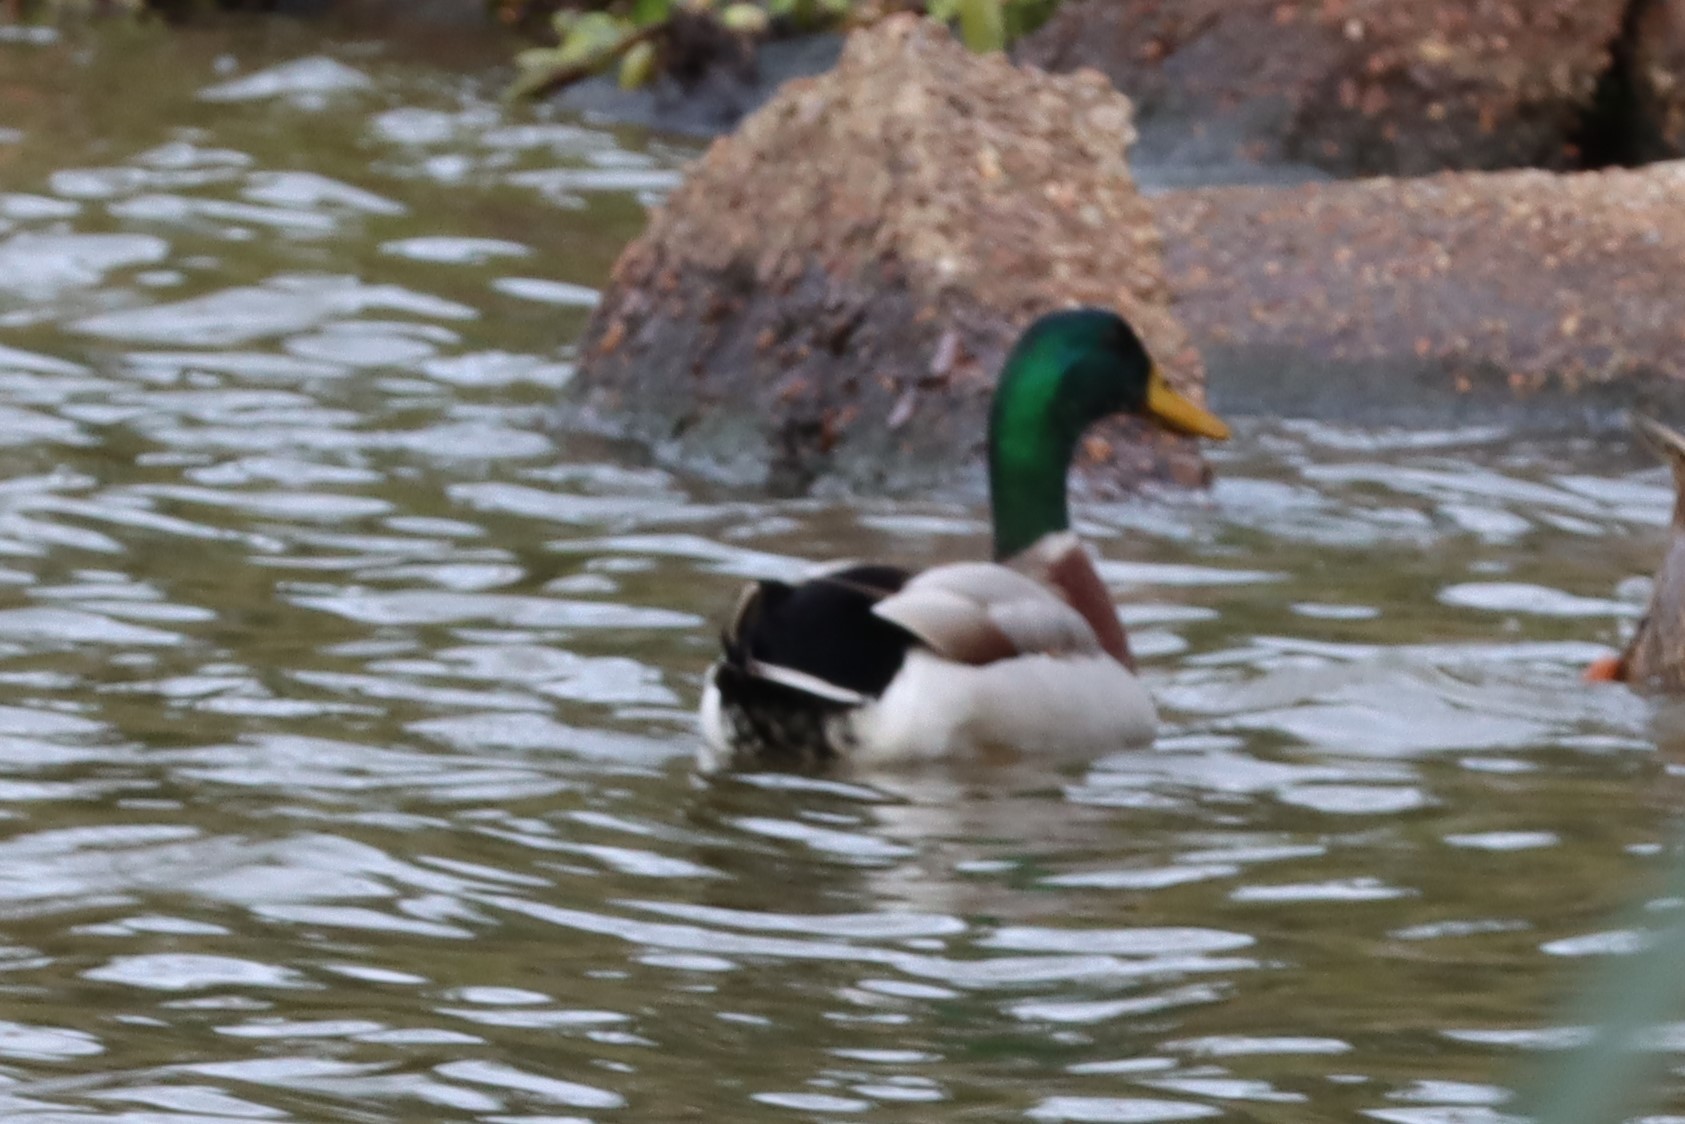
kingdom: Animalia
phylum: Chordata
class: Aves
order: Anseriformes
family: Anatidae
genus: Anas
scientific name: Anas platyrhynchos
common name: Mallard
